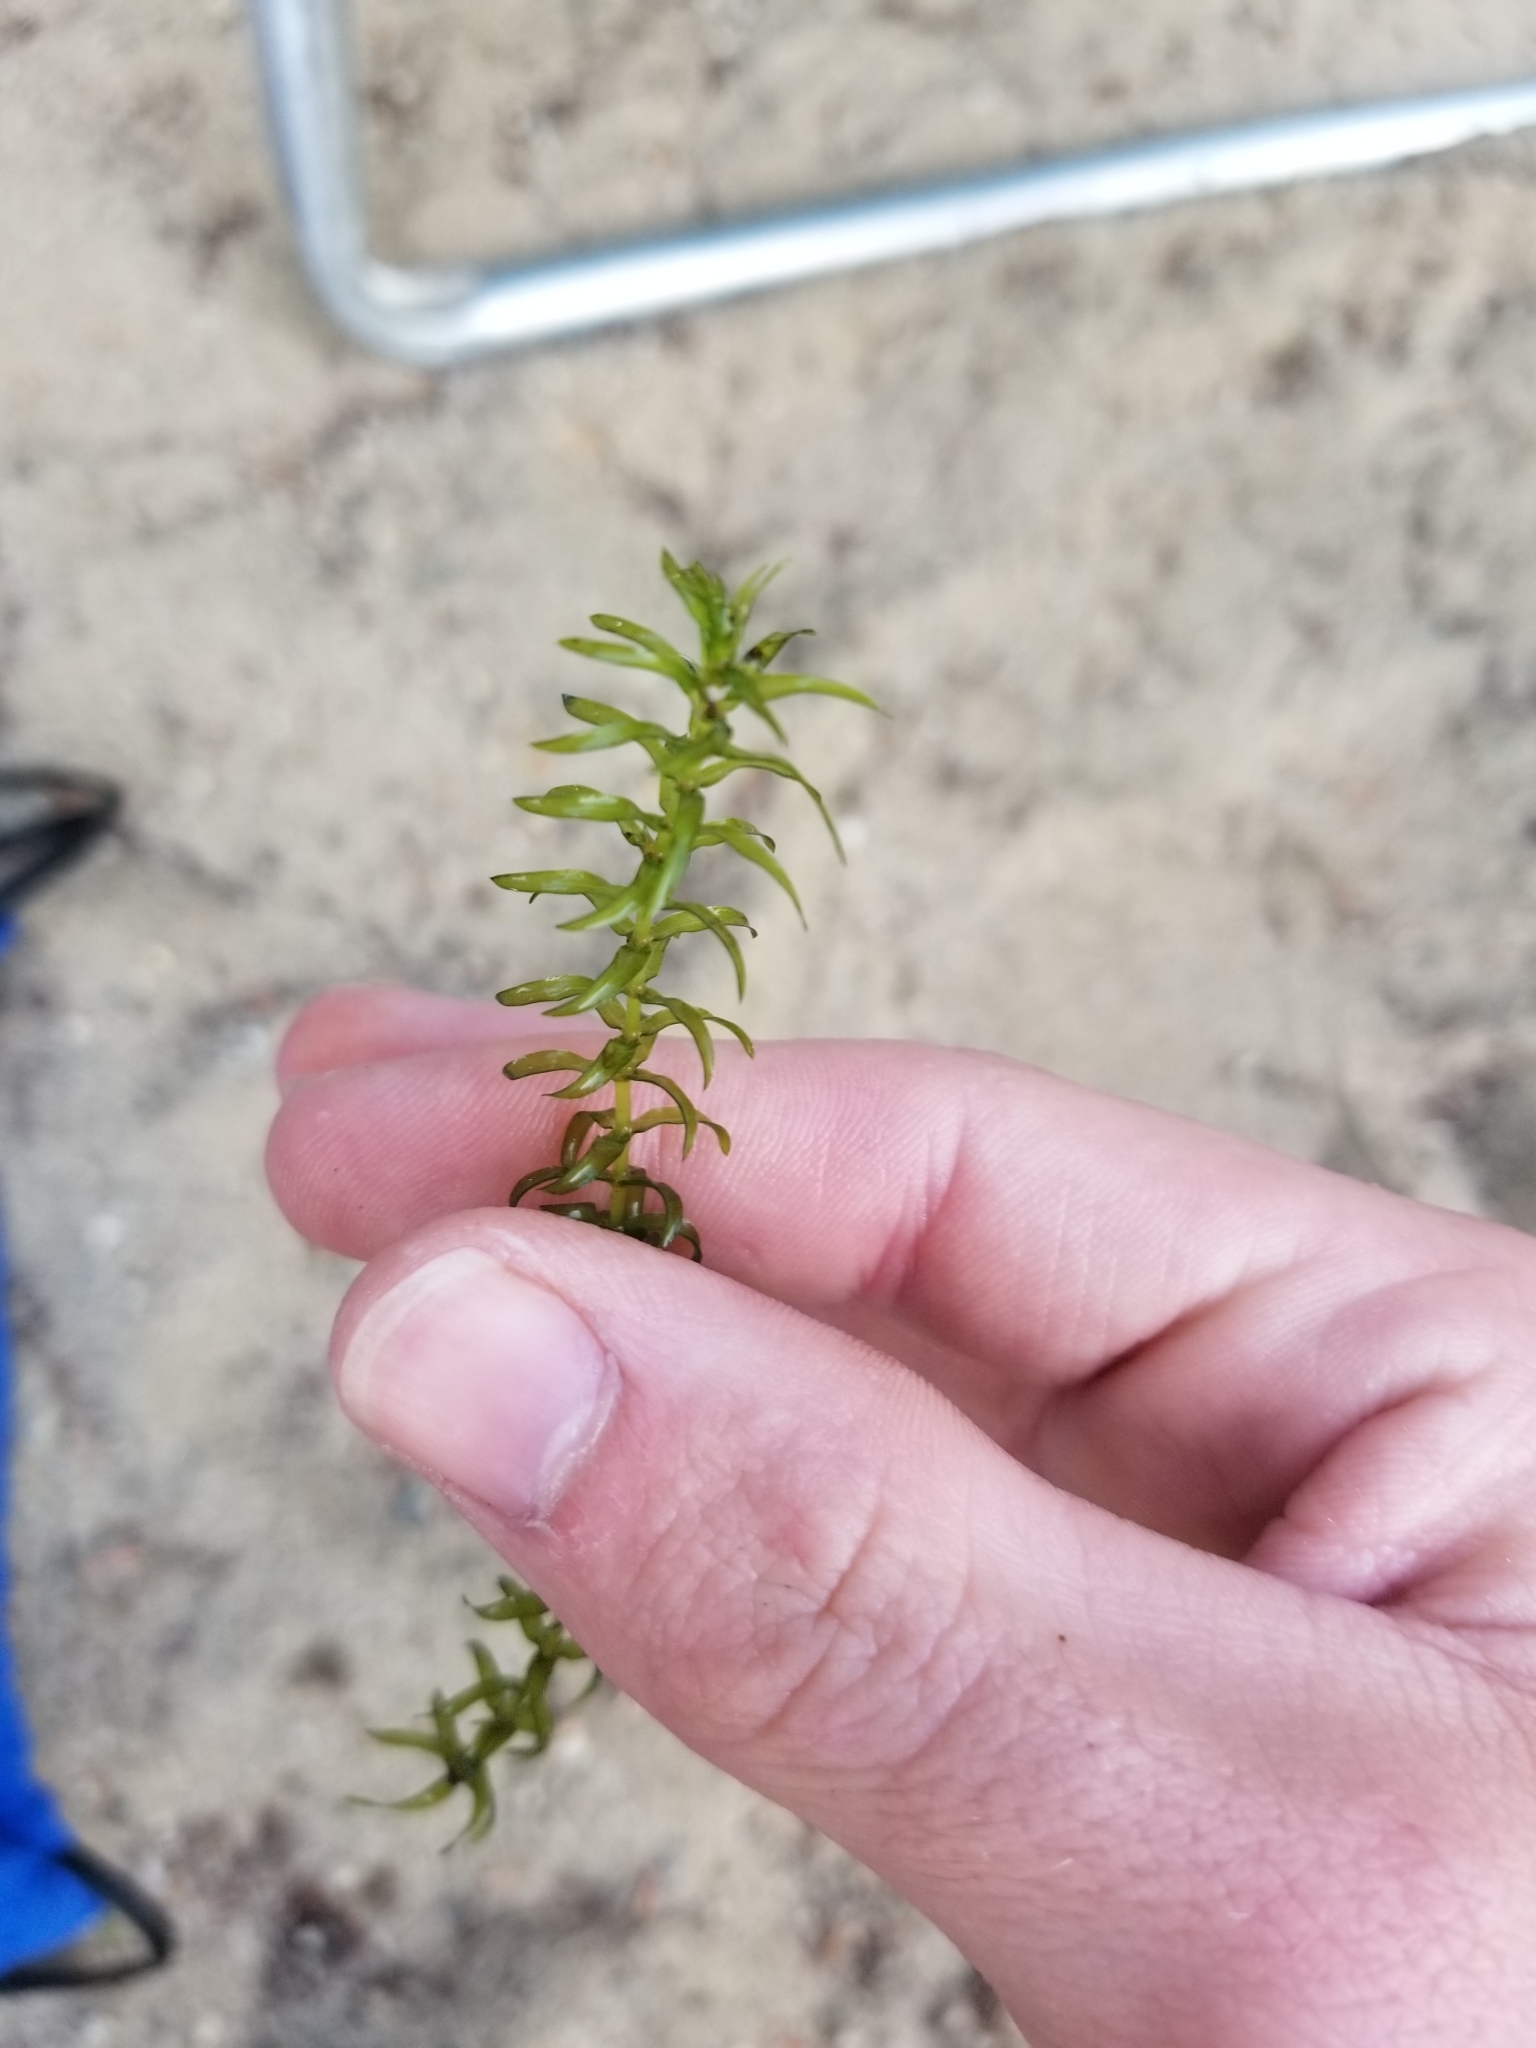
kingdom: Plantae
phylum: Tracheophyta
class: Liliopsida
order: Alismatales
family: Hydrocharitaceae
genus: Elodea
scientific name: Elodea canadensis
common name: Canadian waterweed
